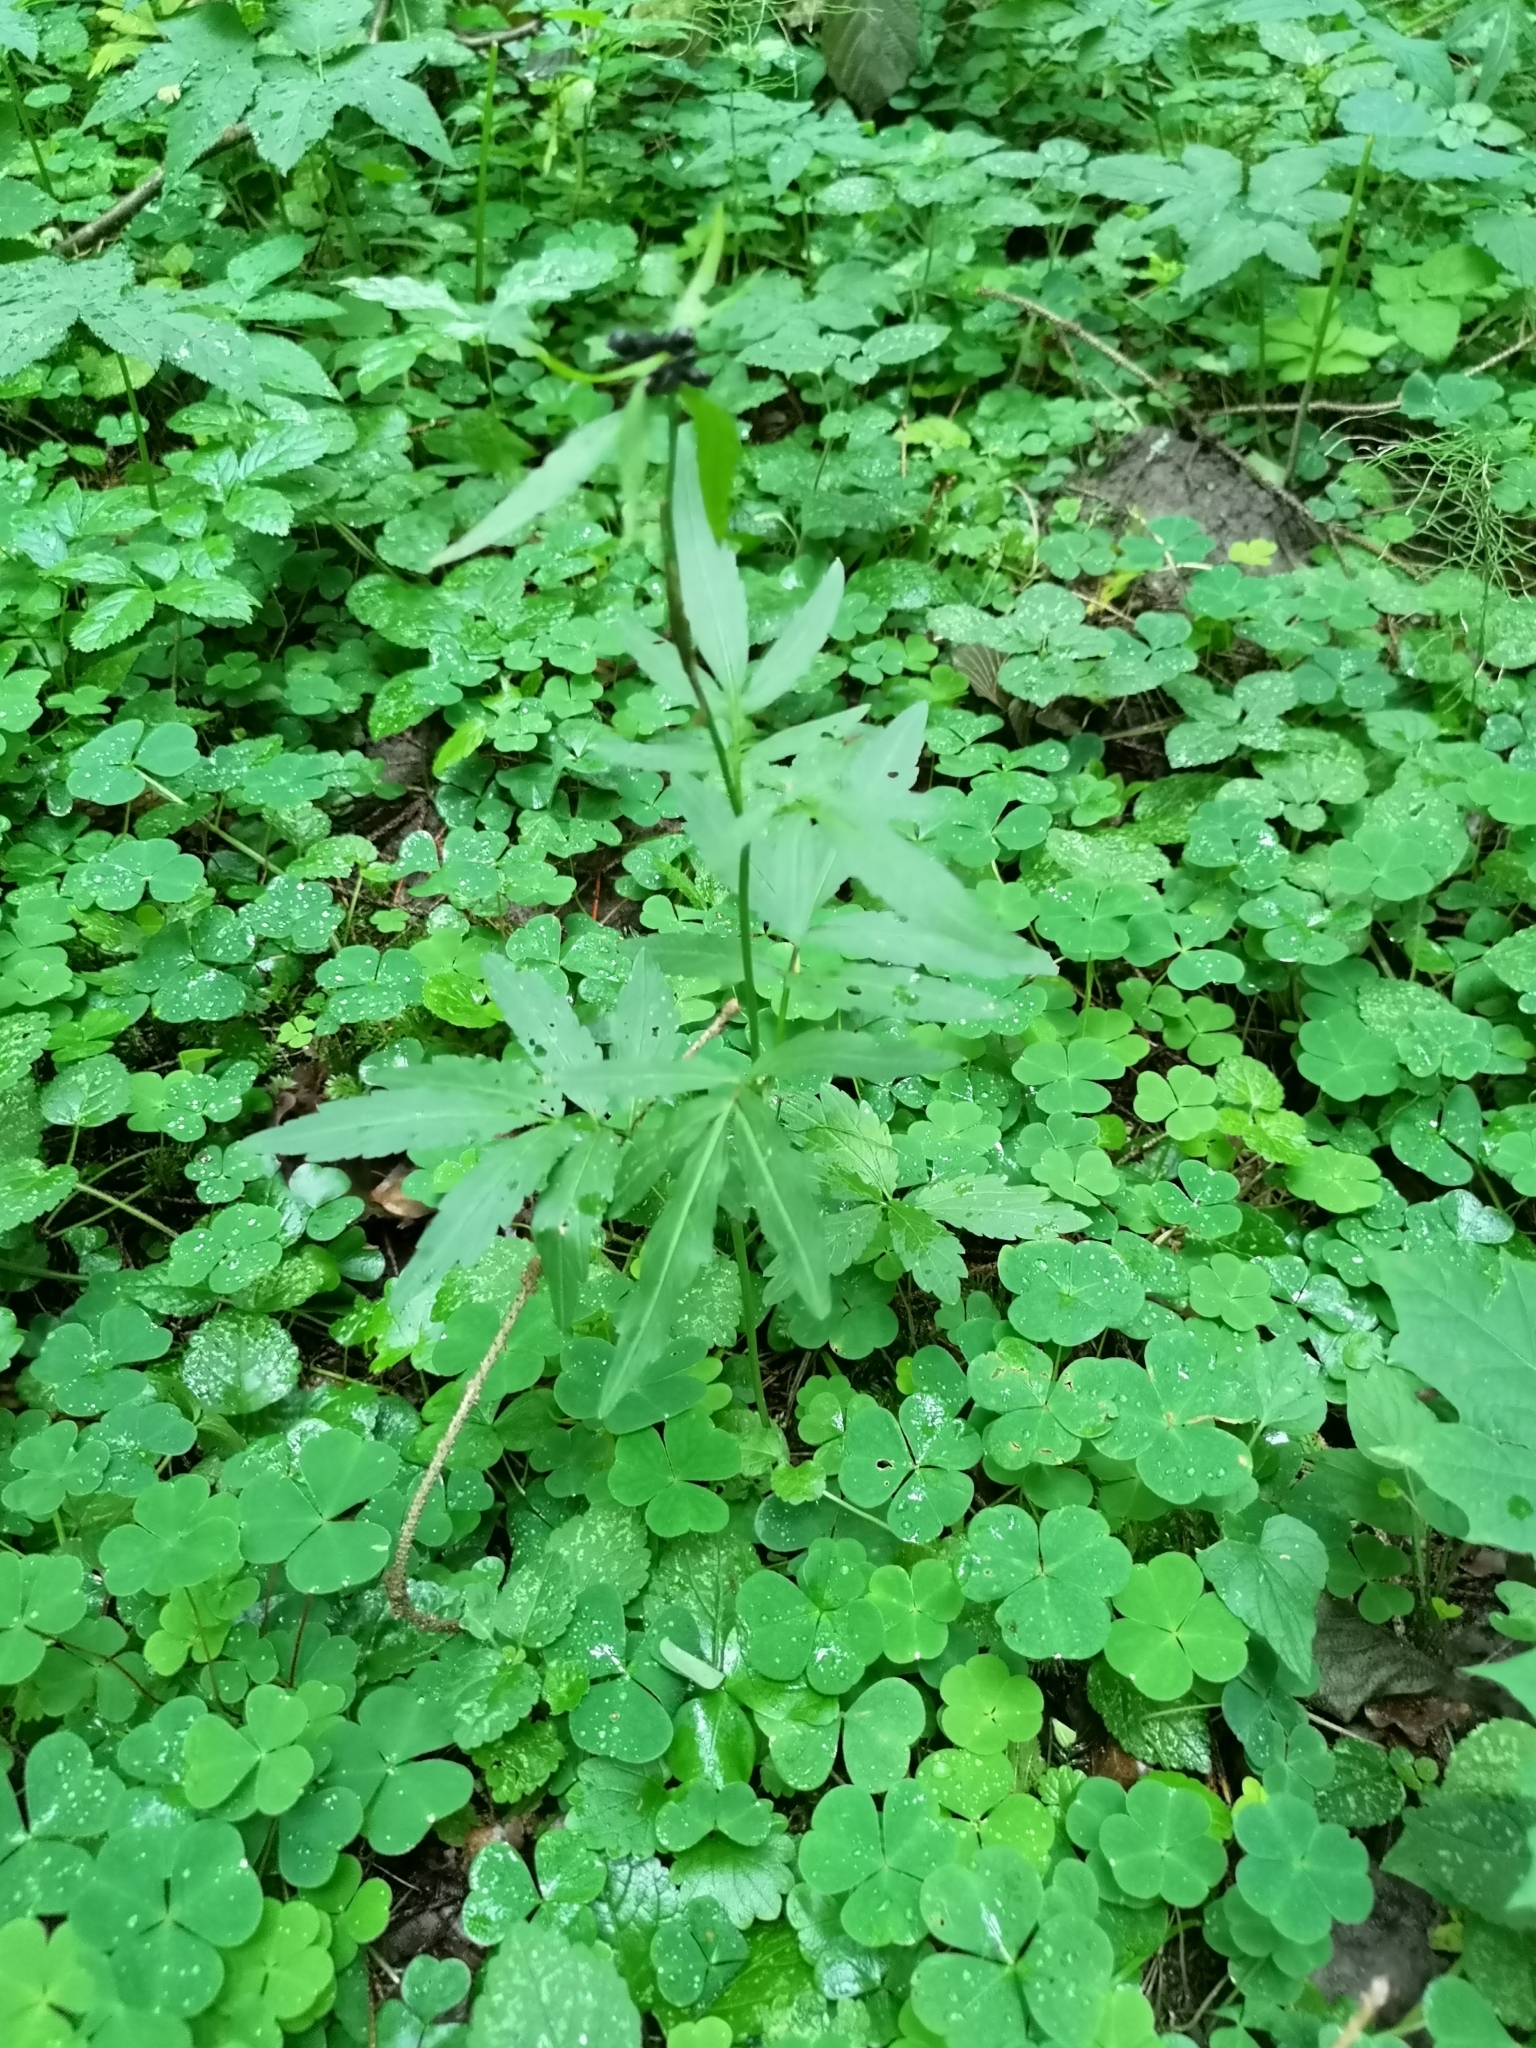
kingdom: Plantae
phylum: Tracheophyta
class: Magnoliopsida
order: Brassicales
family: Brassicaceae
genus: Cardamine
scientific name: Cardamine bulbifera
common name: Coralroot bittercress
